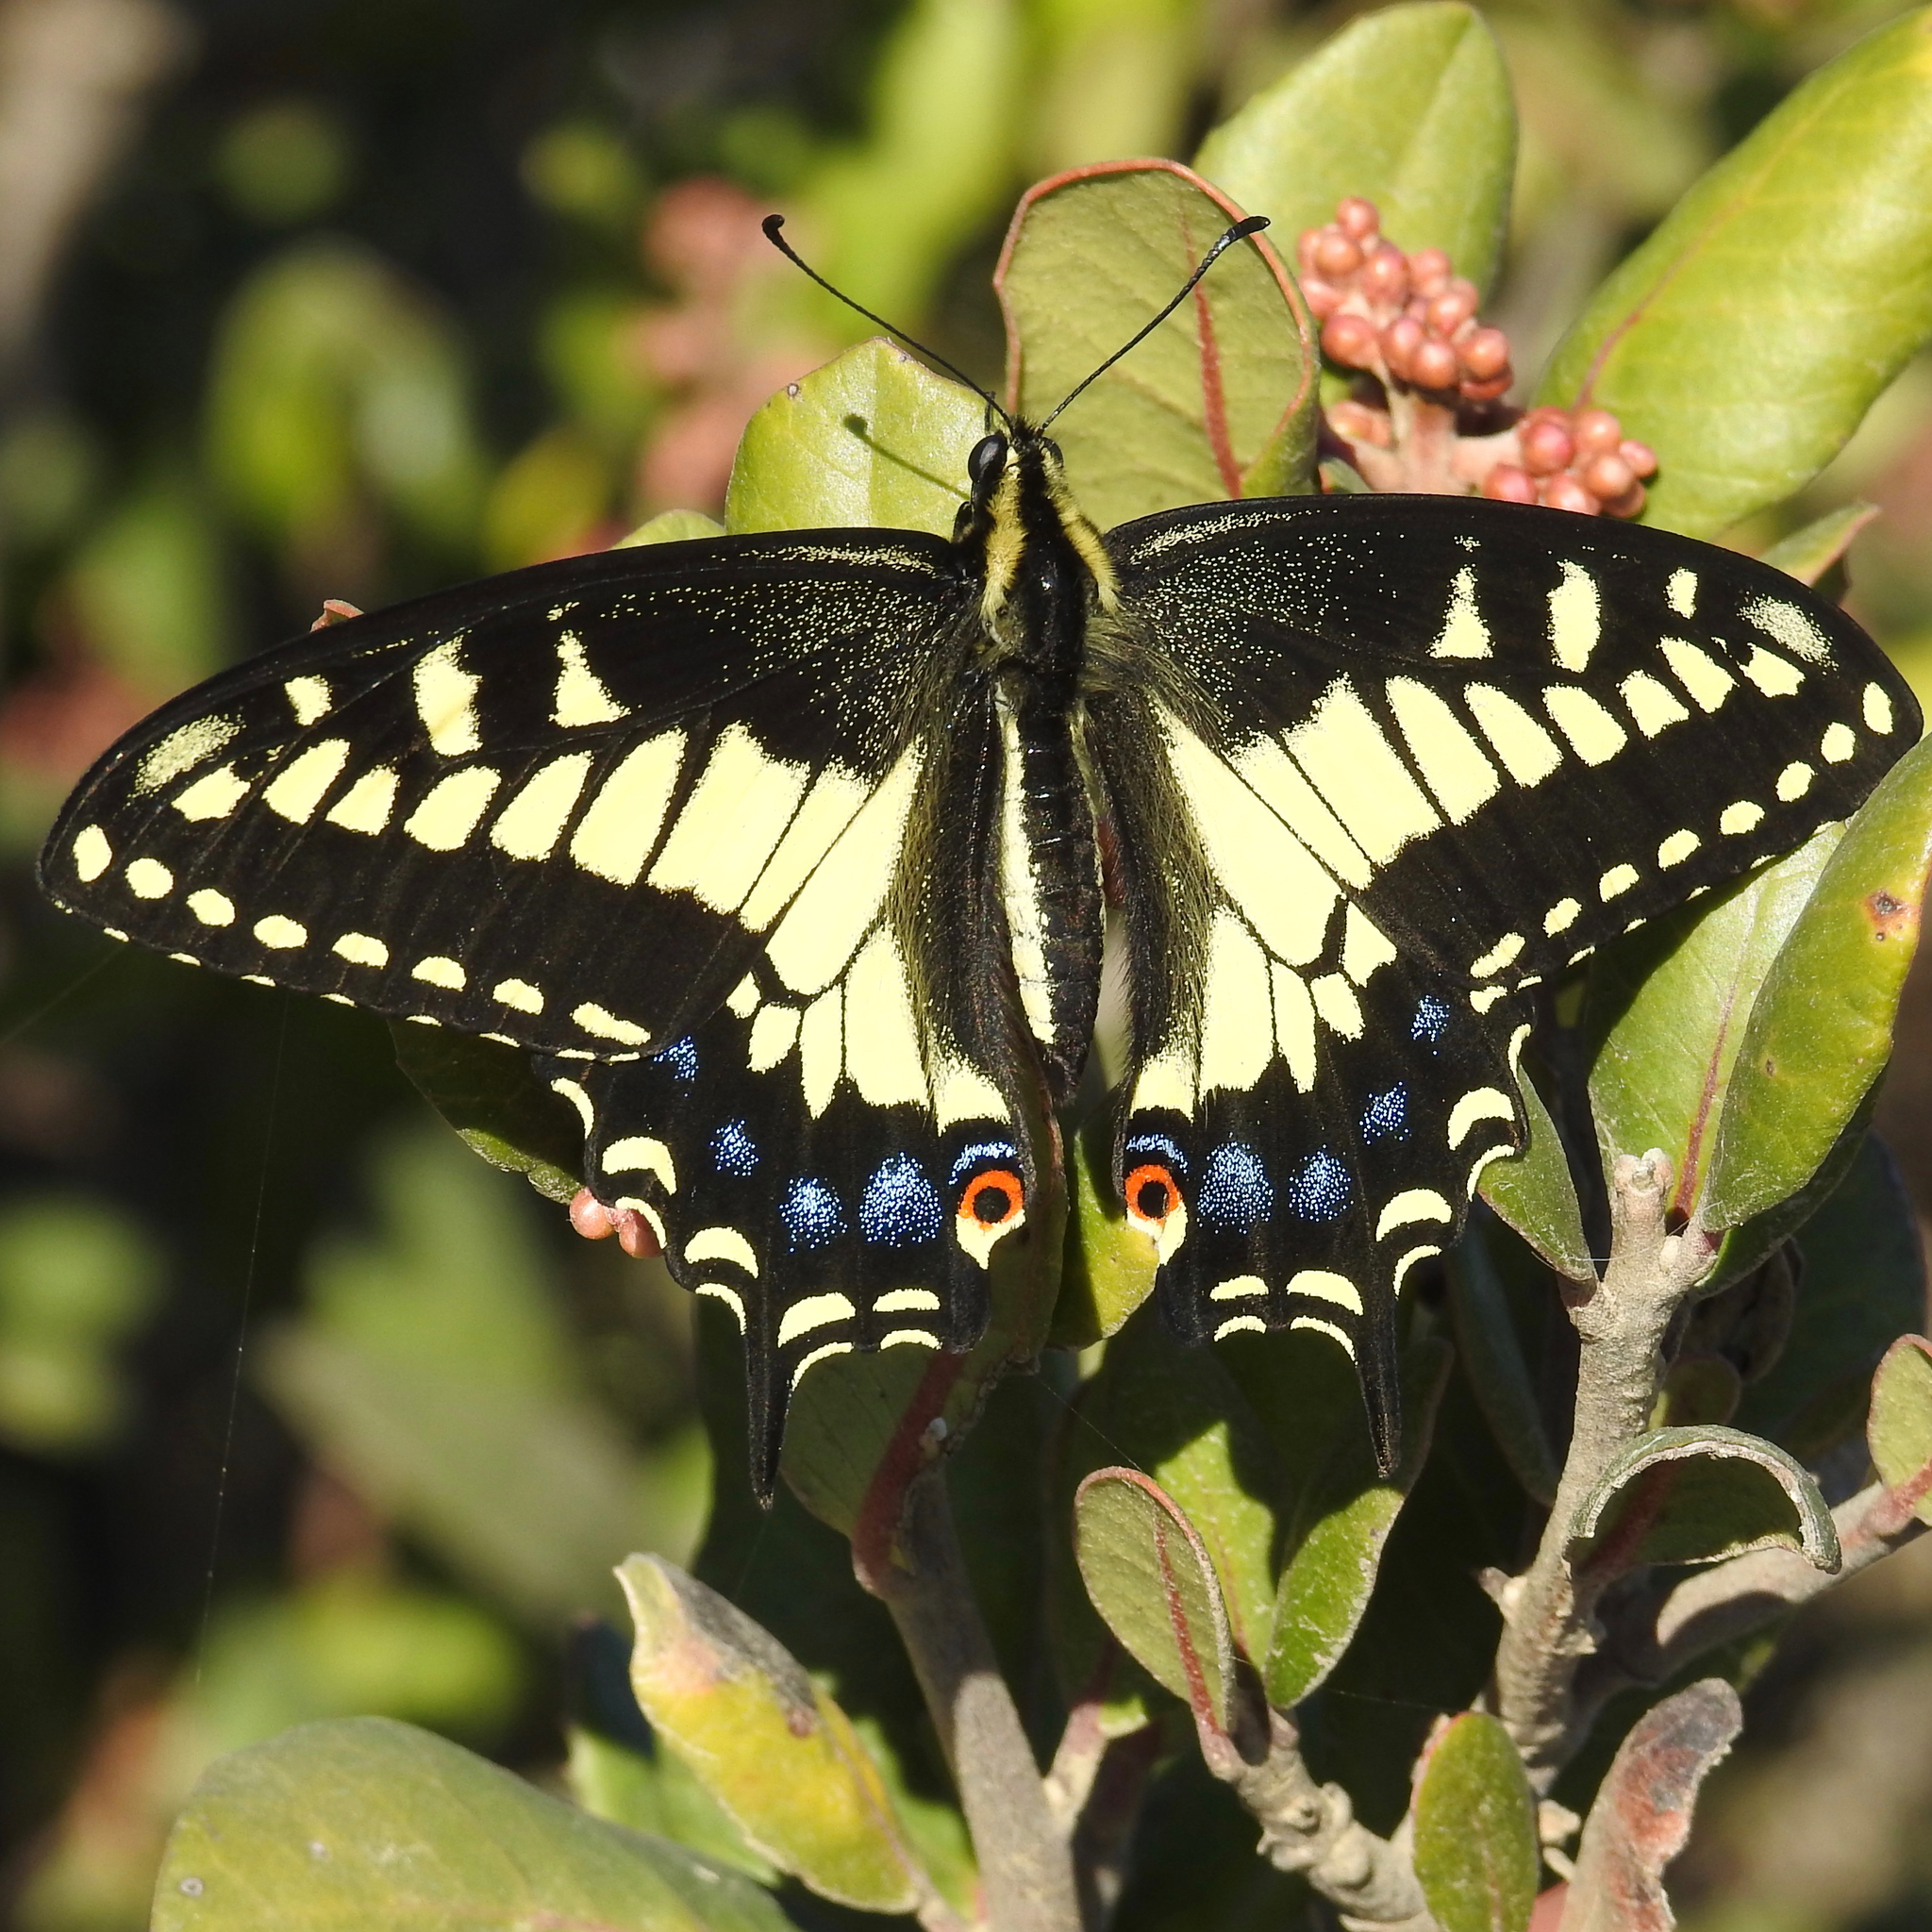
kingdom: Animalia
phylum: Arthropoda
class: Insecta
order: Lepidoptera
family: Papilionidae
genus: Papilio
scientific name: Papilio zelicaon
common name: Anise swallowtail
